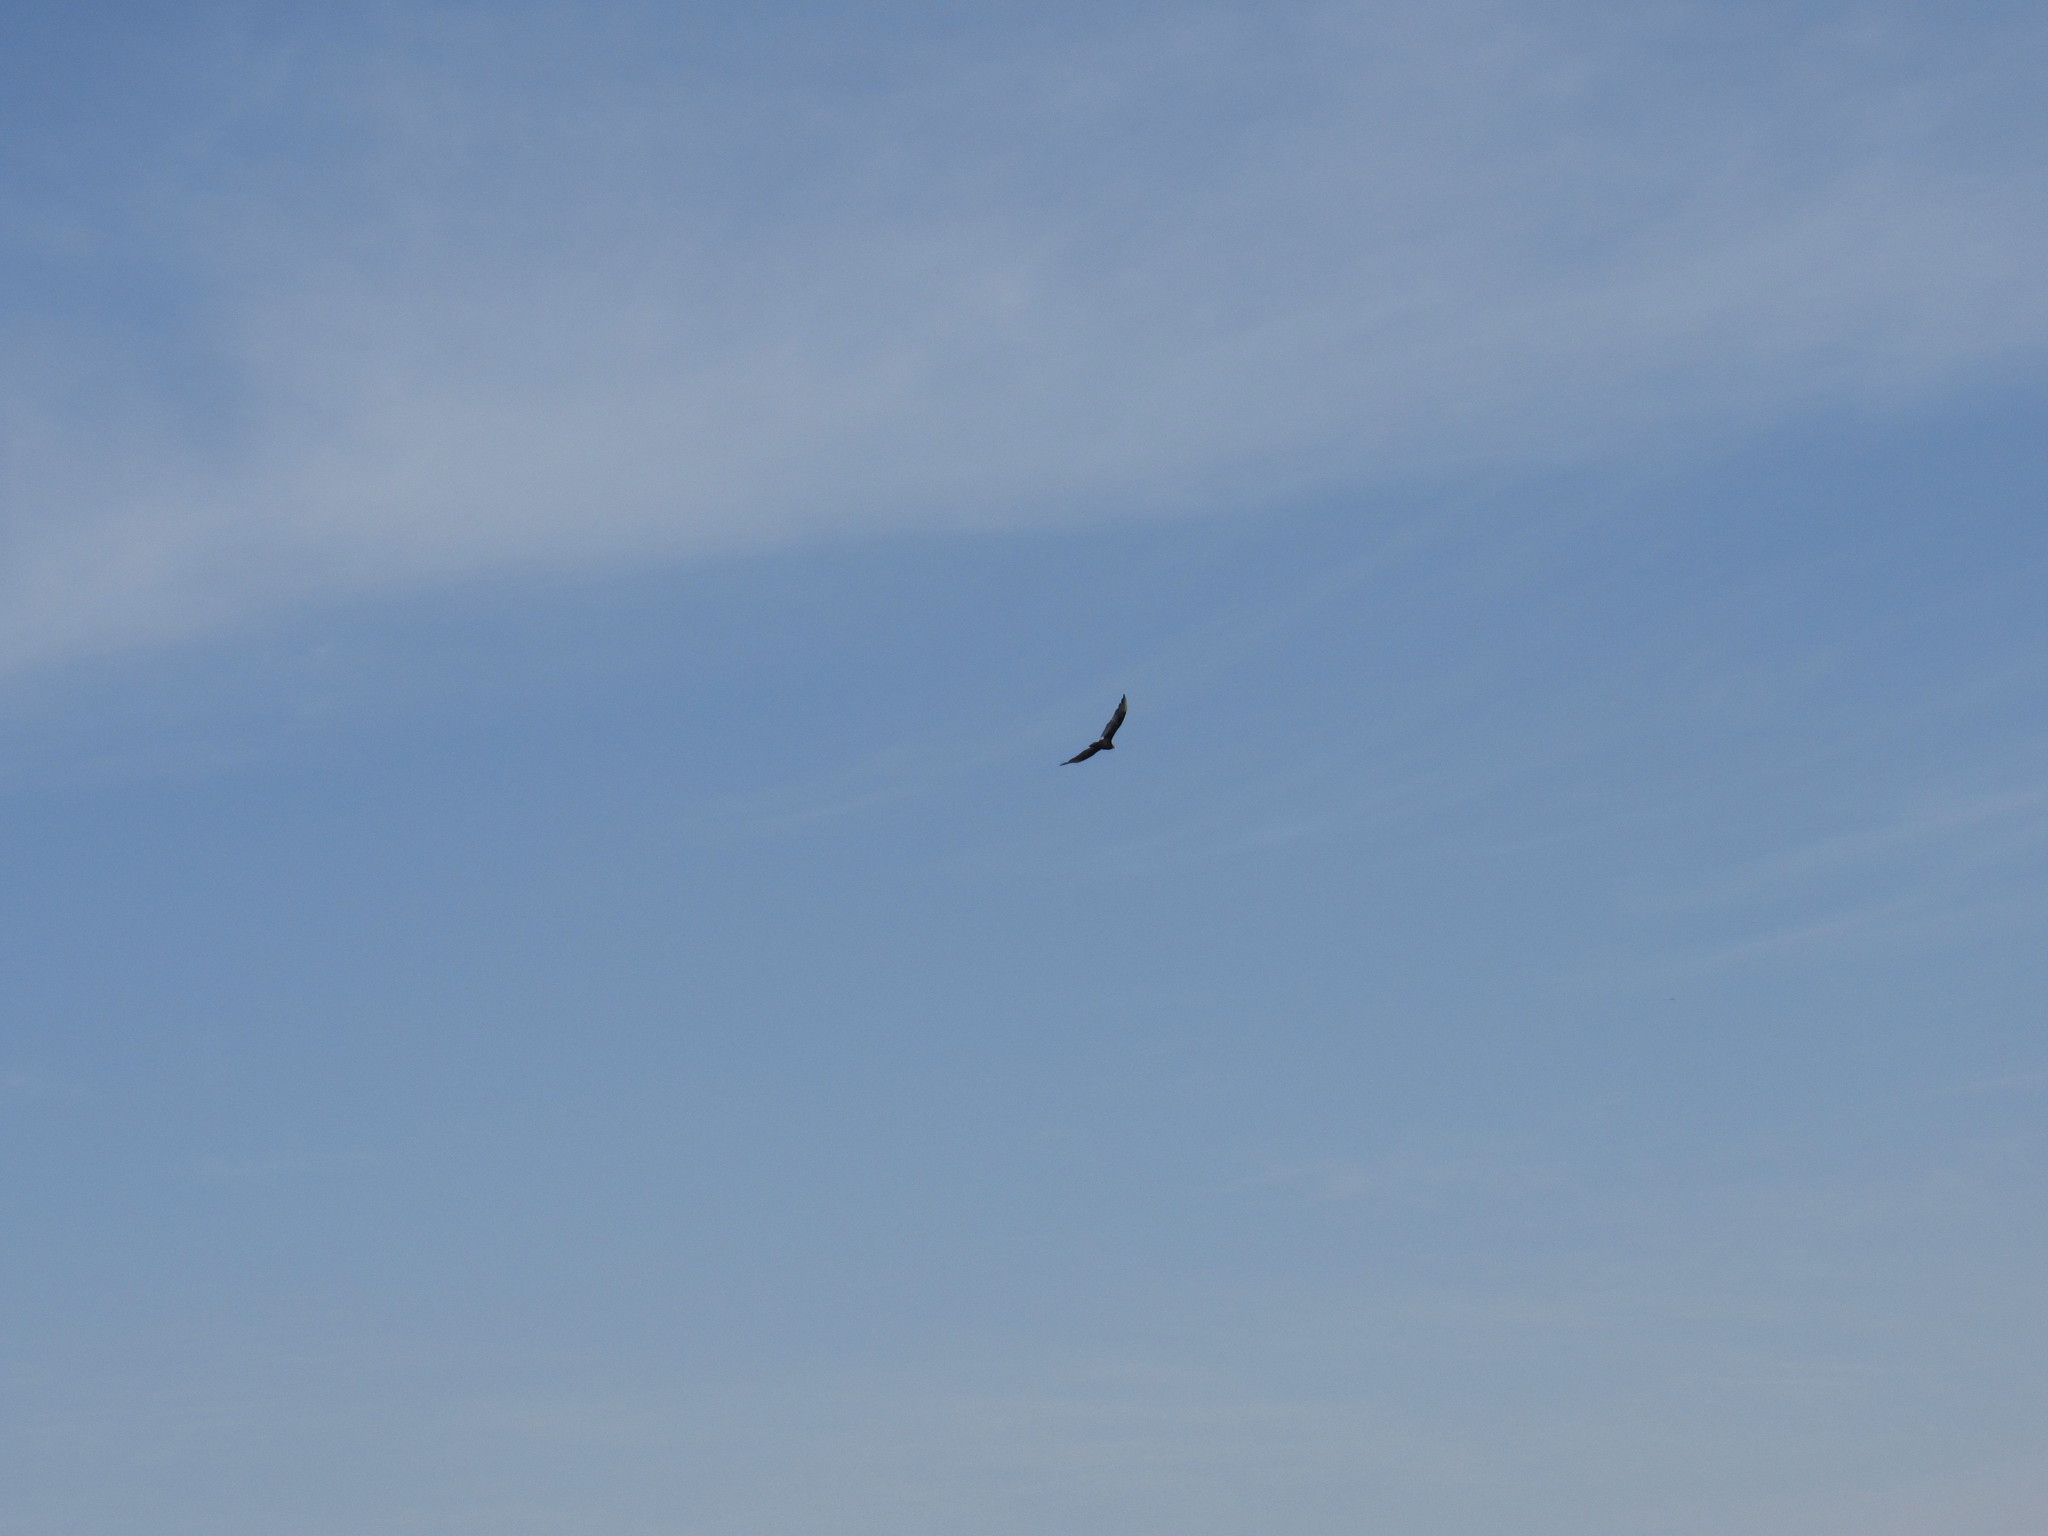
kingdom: Animalia
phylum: Chordata
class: Aves
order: Accipitriformes
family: Cathartidae
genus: Cathartes
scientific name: Cathartes aura
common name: Turkey vulture
